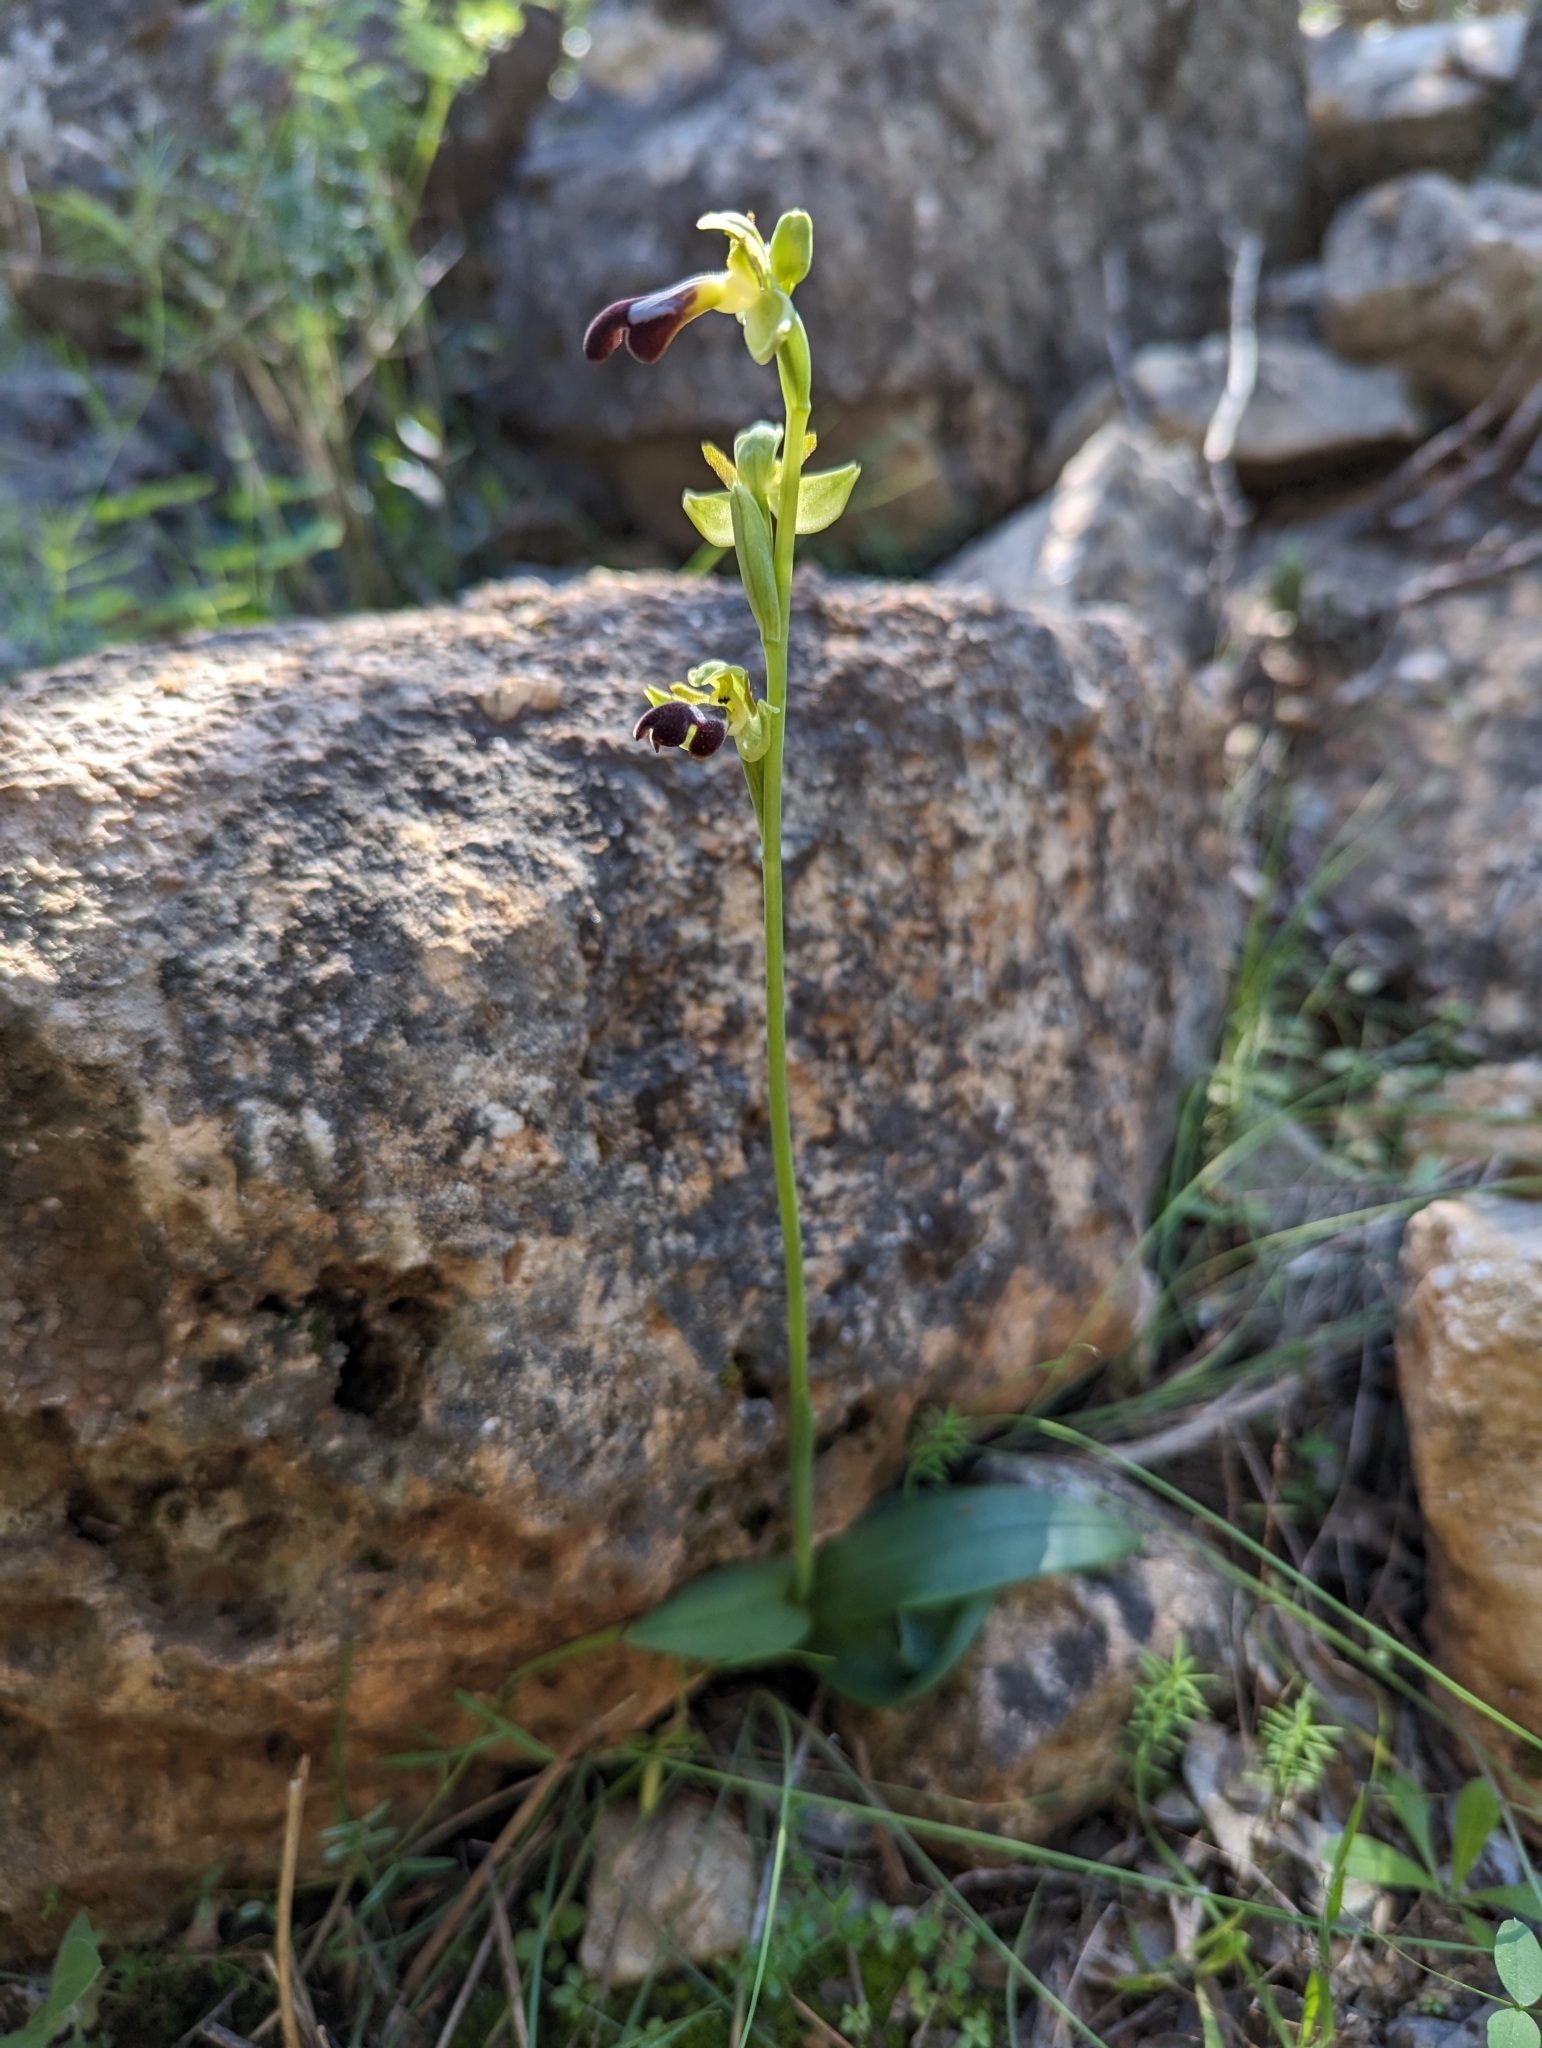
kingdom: Plantae
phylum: Tracheophyta
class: Liliopsida
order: Asparagales
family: Orchidaceae
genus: Ophrys
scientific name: Ophrys fusca
